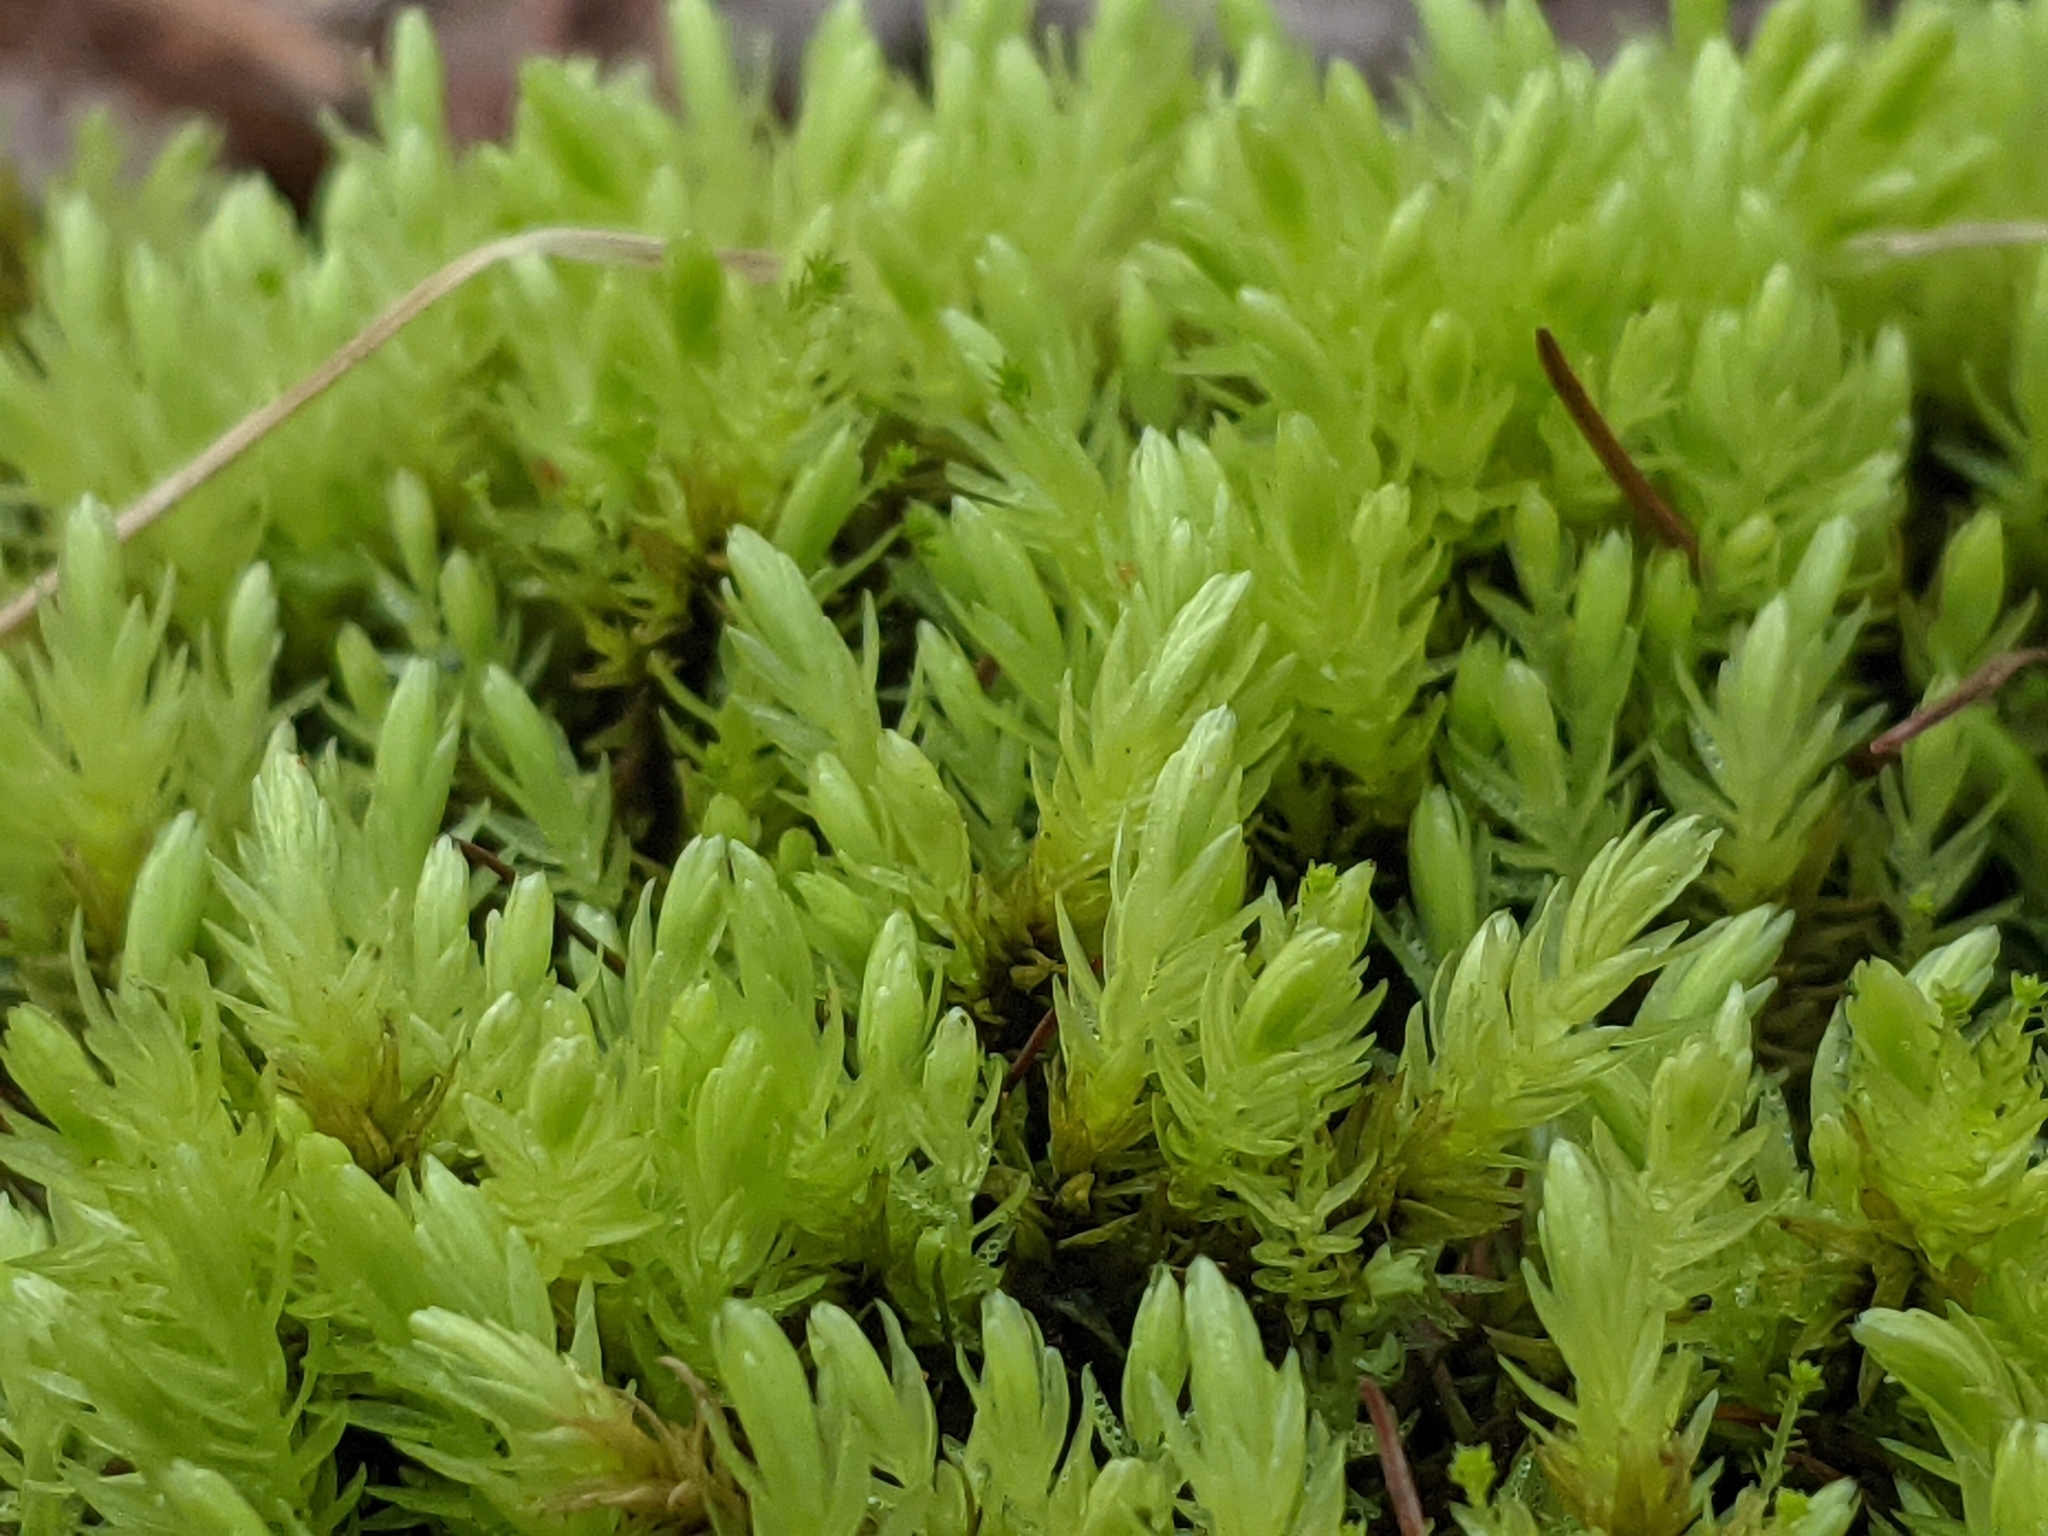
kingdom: Plantae
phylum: Bryophyta
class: Bryopsida
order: Aulacomniales
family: Aulacomniaceae
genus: Aulacomnium
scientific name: Aulacomnium palustre
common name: Bog groove-moss
